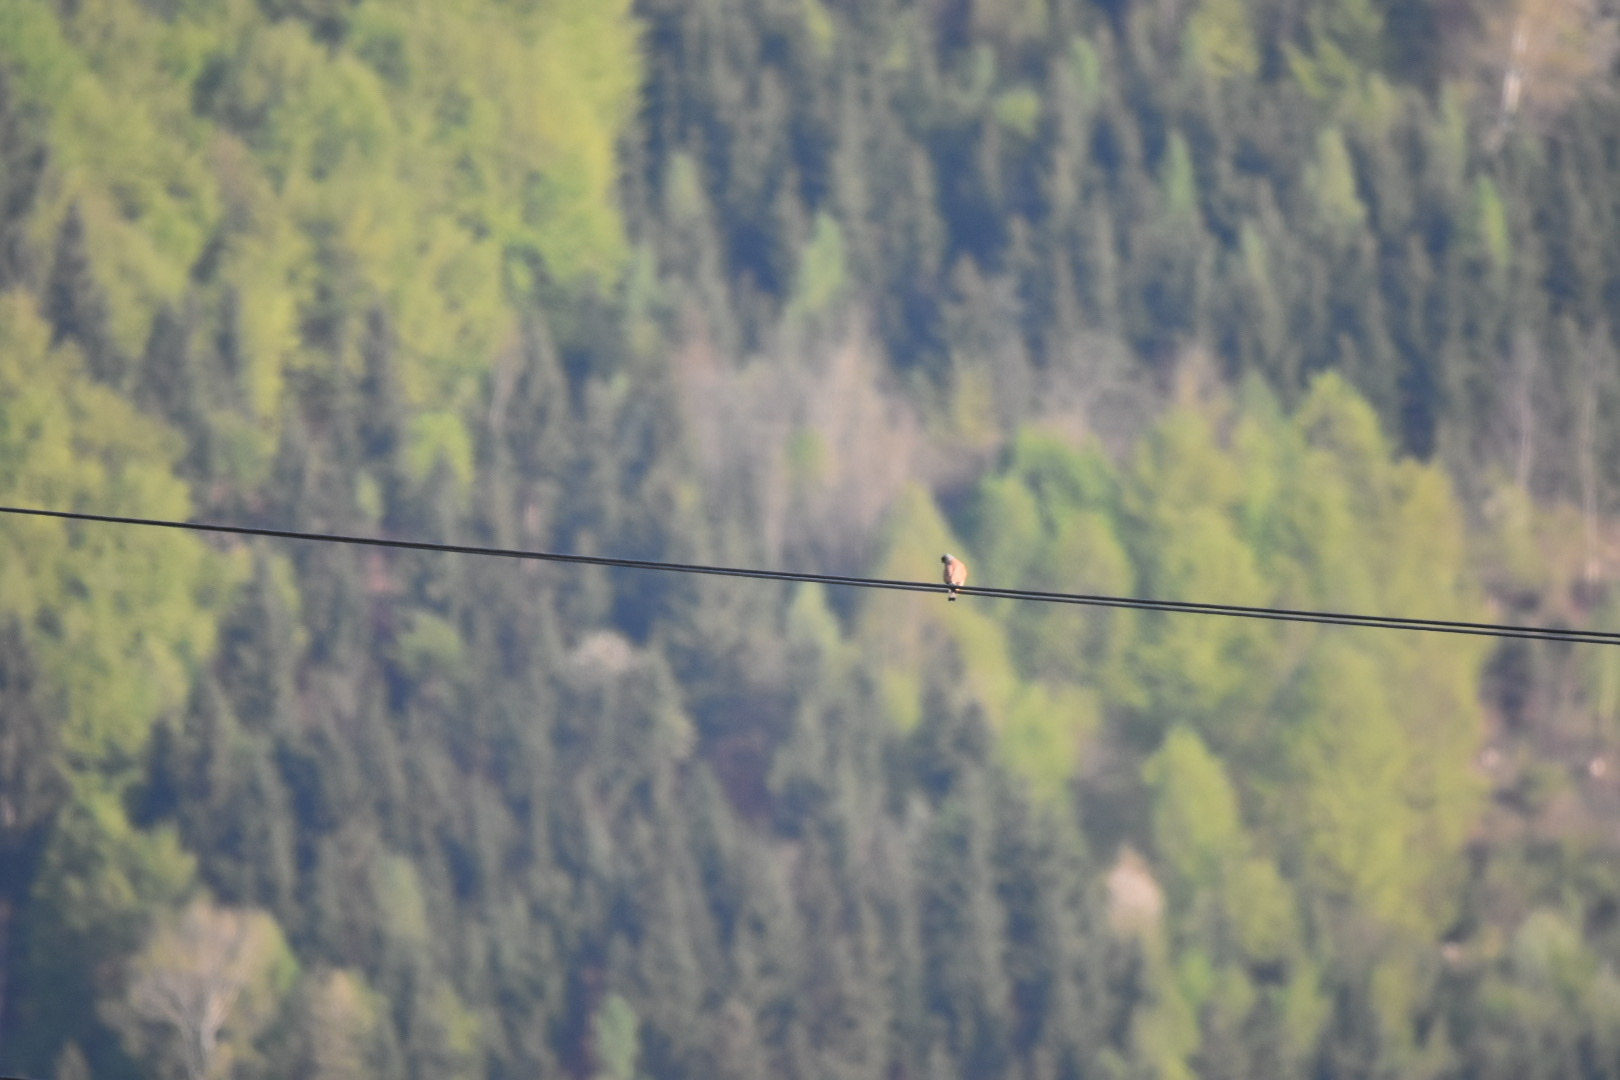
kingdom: Animalia
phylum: Chordata
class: Aves
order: Falconiformes
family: Falconidae
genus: Falco
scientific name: Falco tinnunculus
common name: Common kestrel
